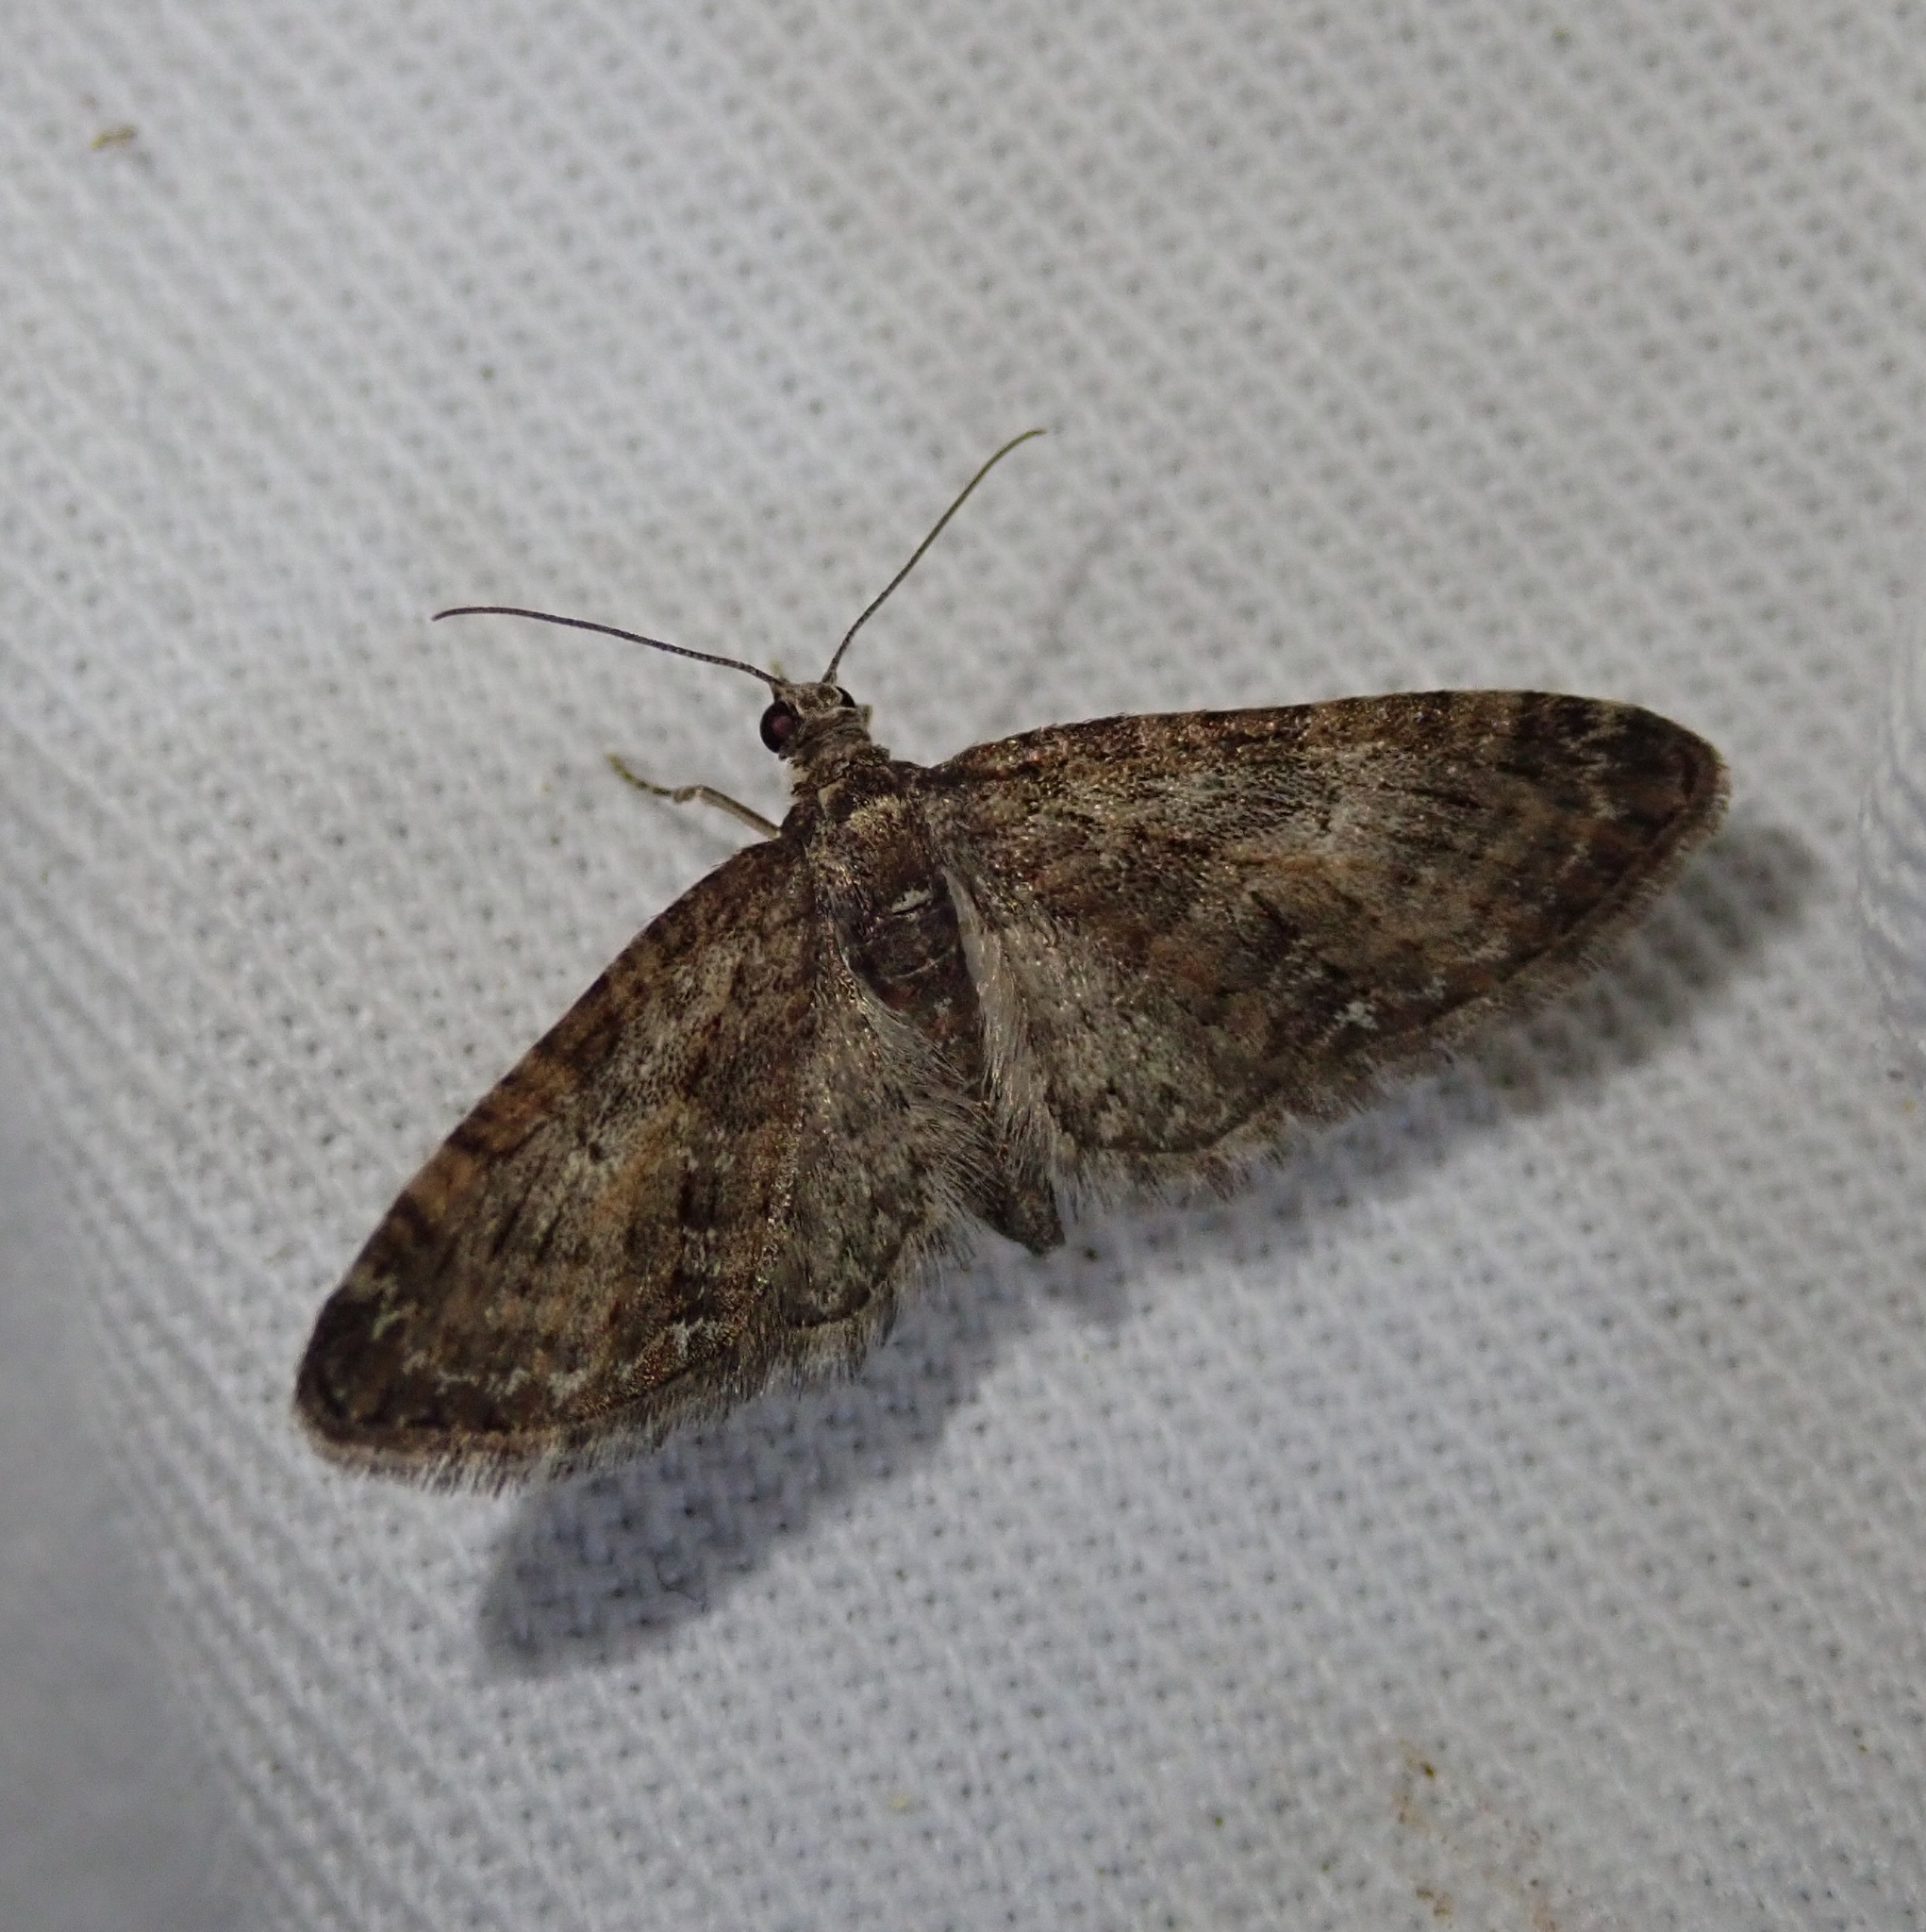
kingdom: Animalia
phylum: Arthropoda
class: Insecta
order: Lepidoptera
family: Geometridae
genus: Eupithecia
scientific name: Eupithecia abbreviata
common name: Brindled pug
